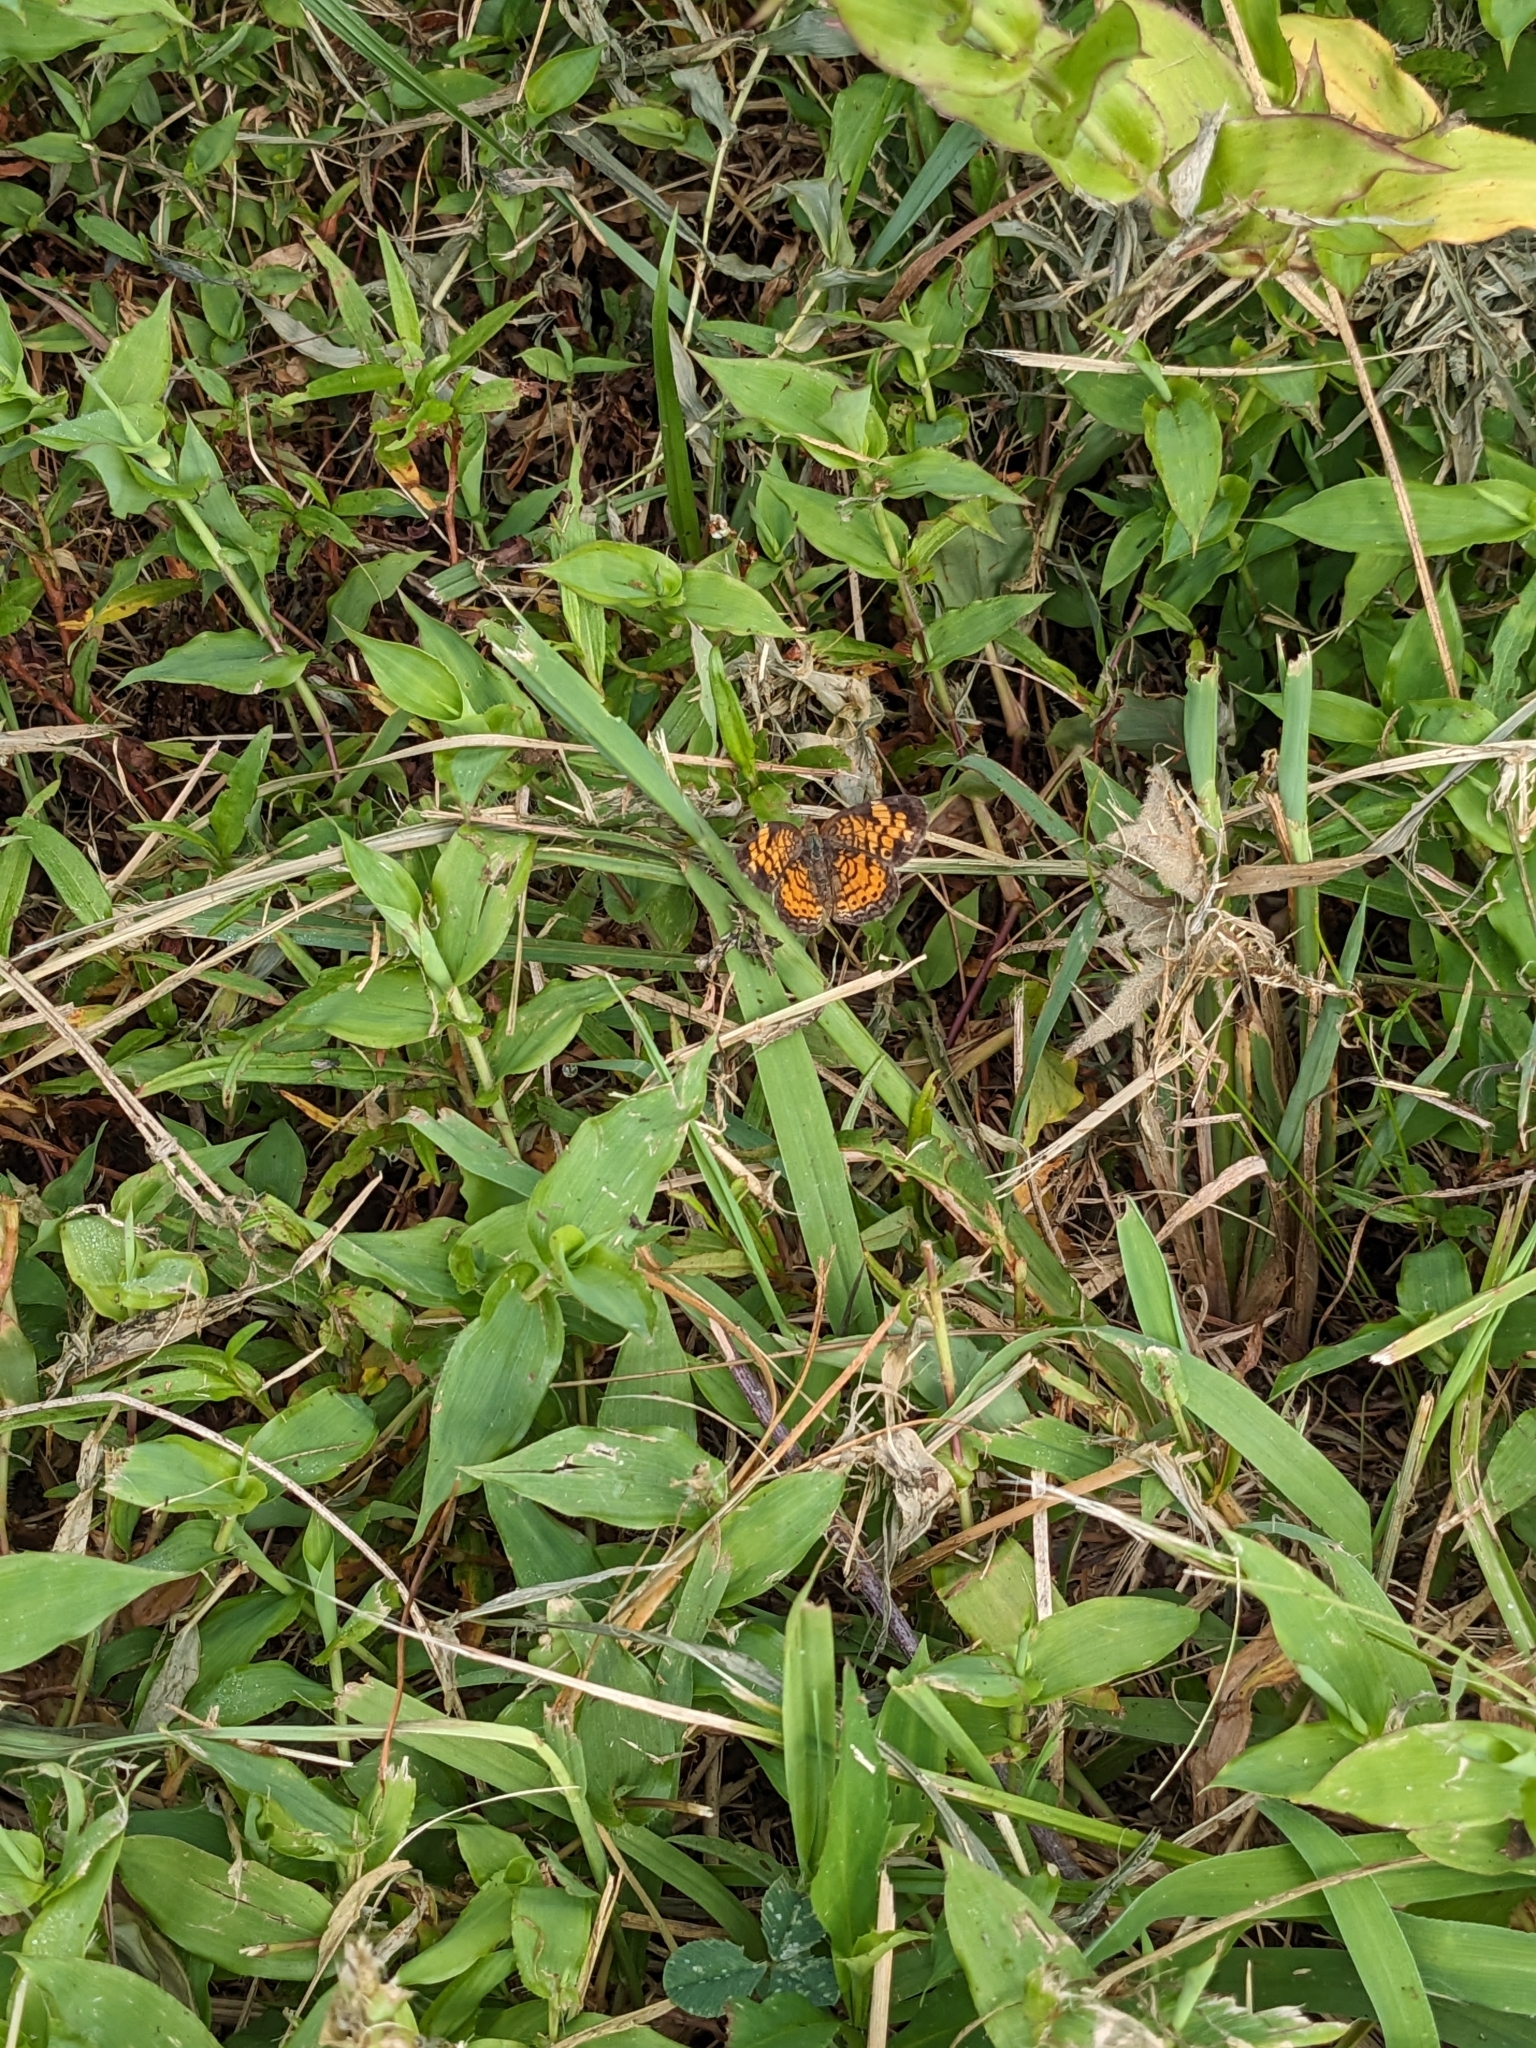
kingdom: Animalia
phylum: Arthropoda
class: Insecta
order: Lepidoptera
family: Nymphalidae
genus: Phyciodes
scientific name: Phyciodes tharos
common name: Pearl crescent
